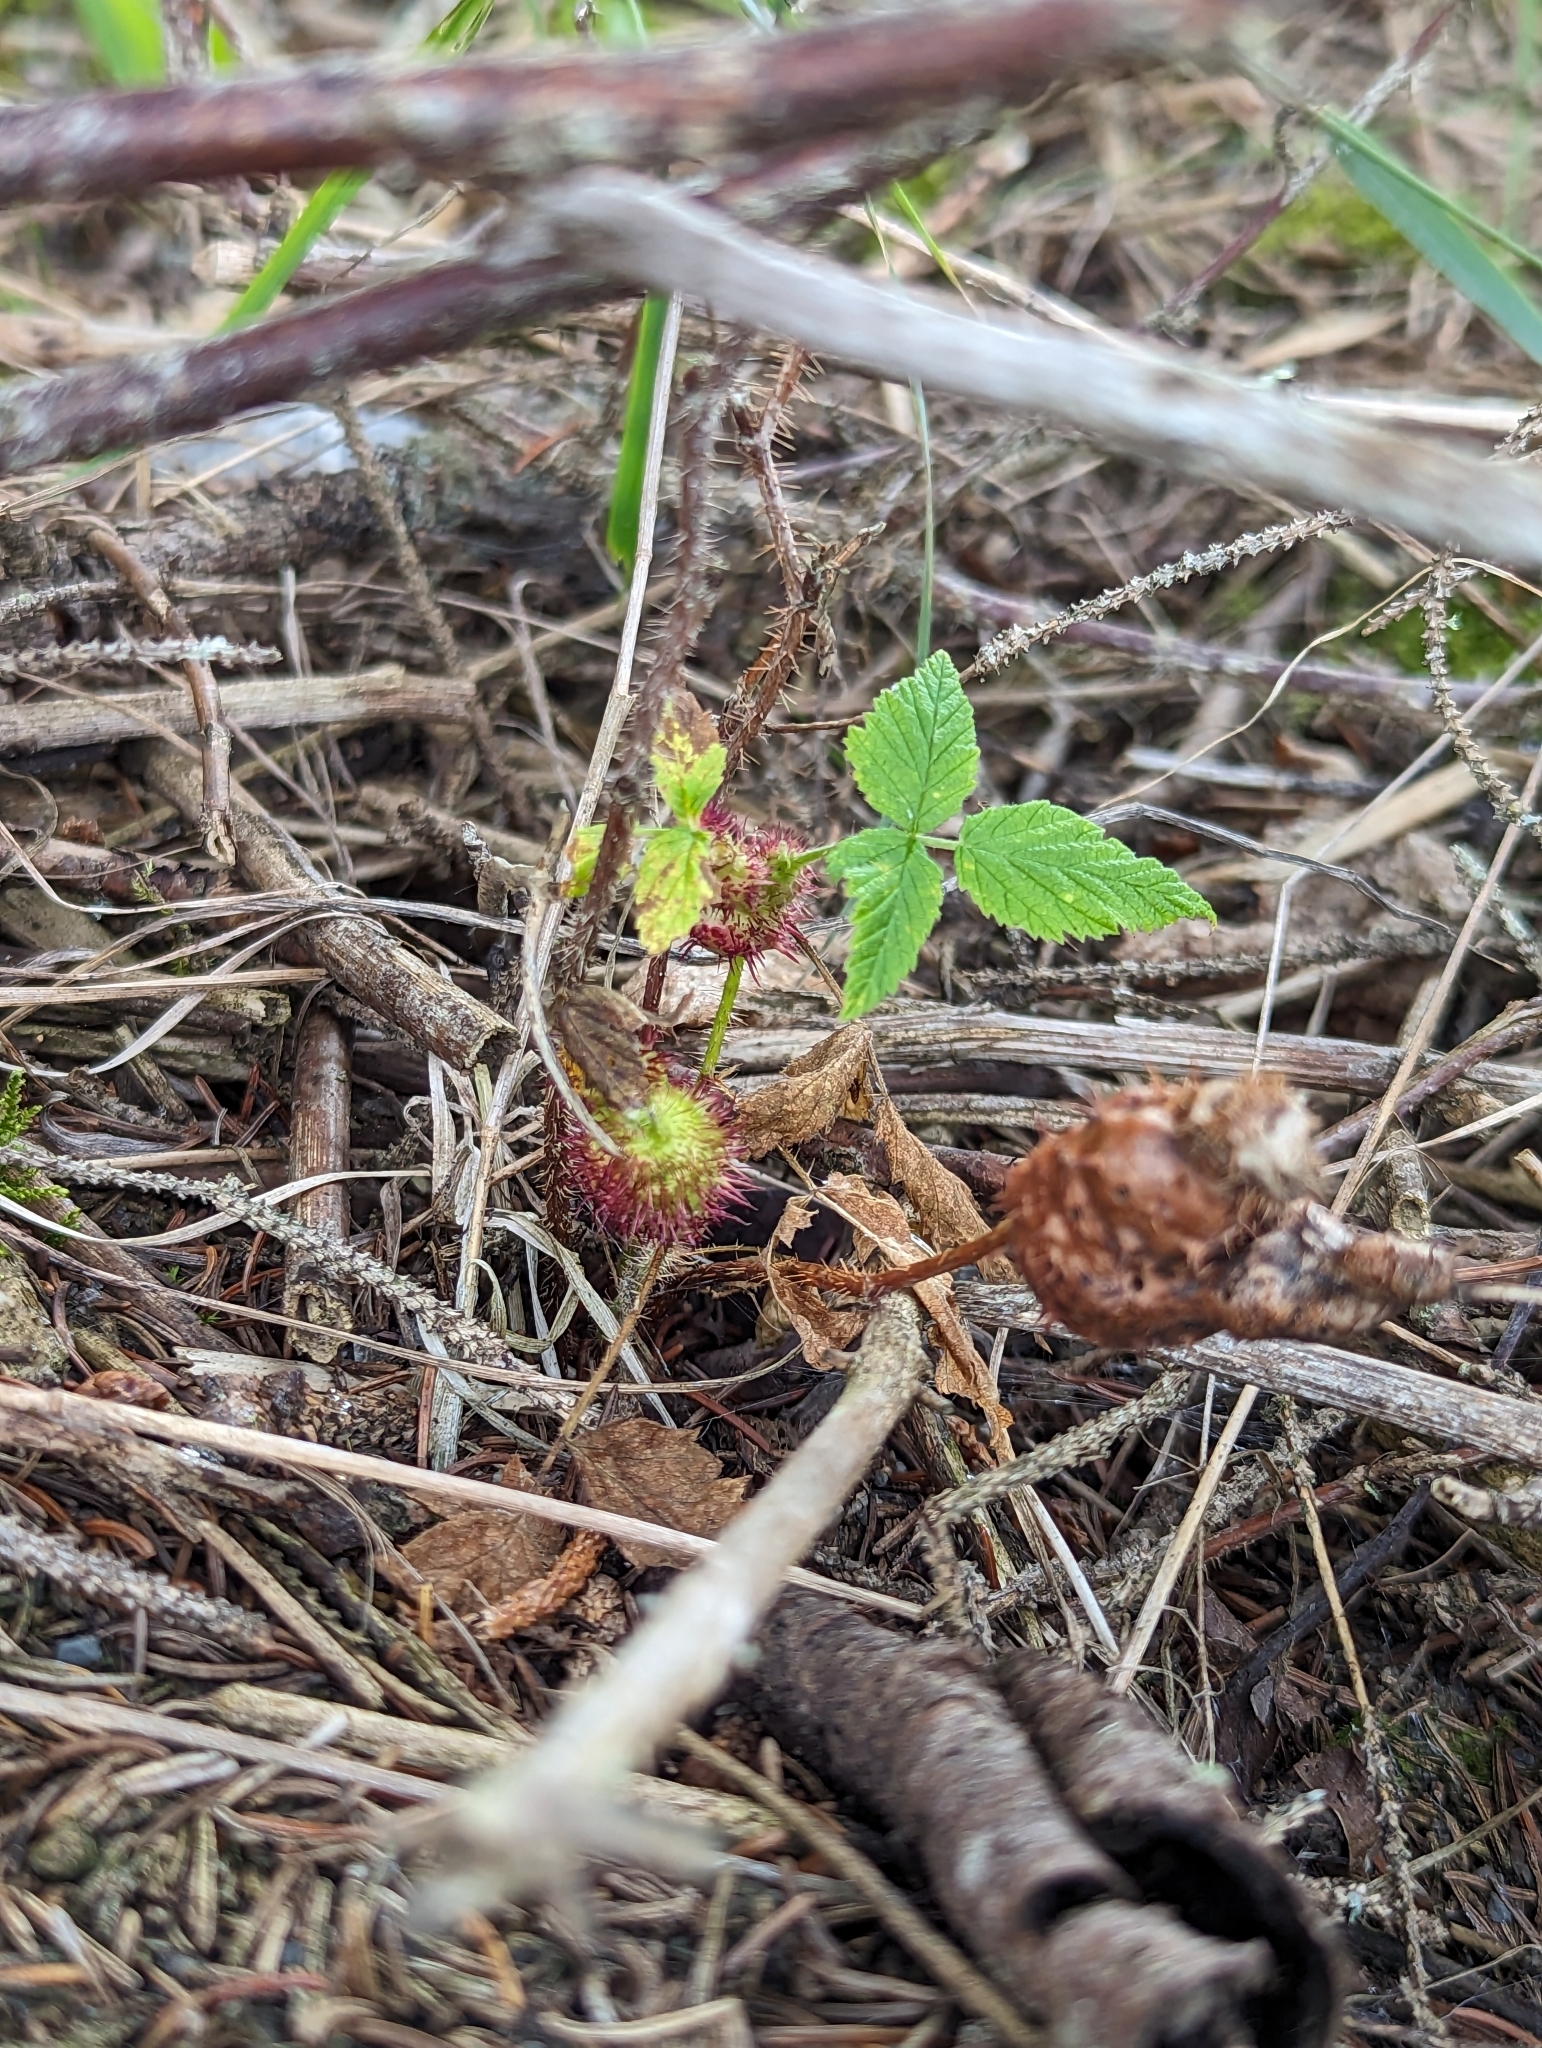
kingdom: Animalia
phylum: Arthropoda
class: Insecta
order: Hymenoptera
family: Cynipidae
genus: Diastrophus
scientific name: Diastrophus turgidus
